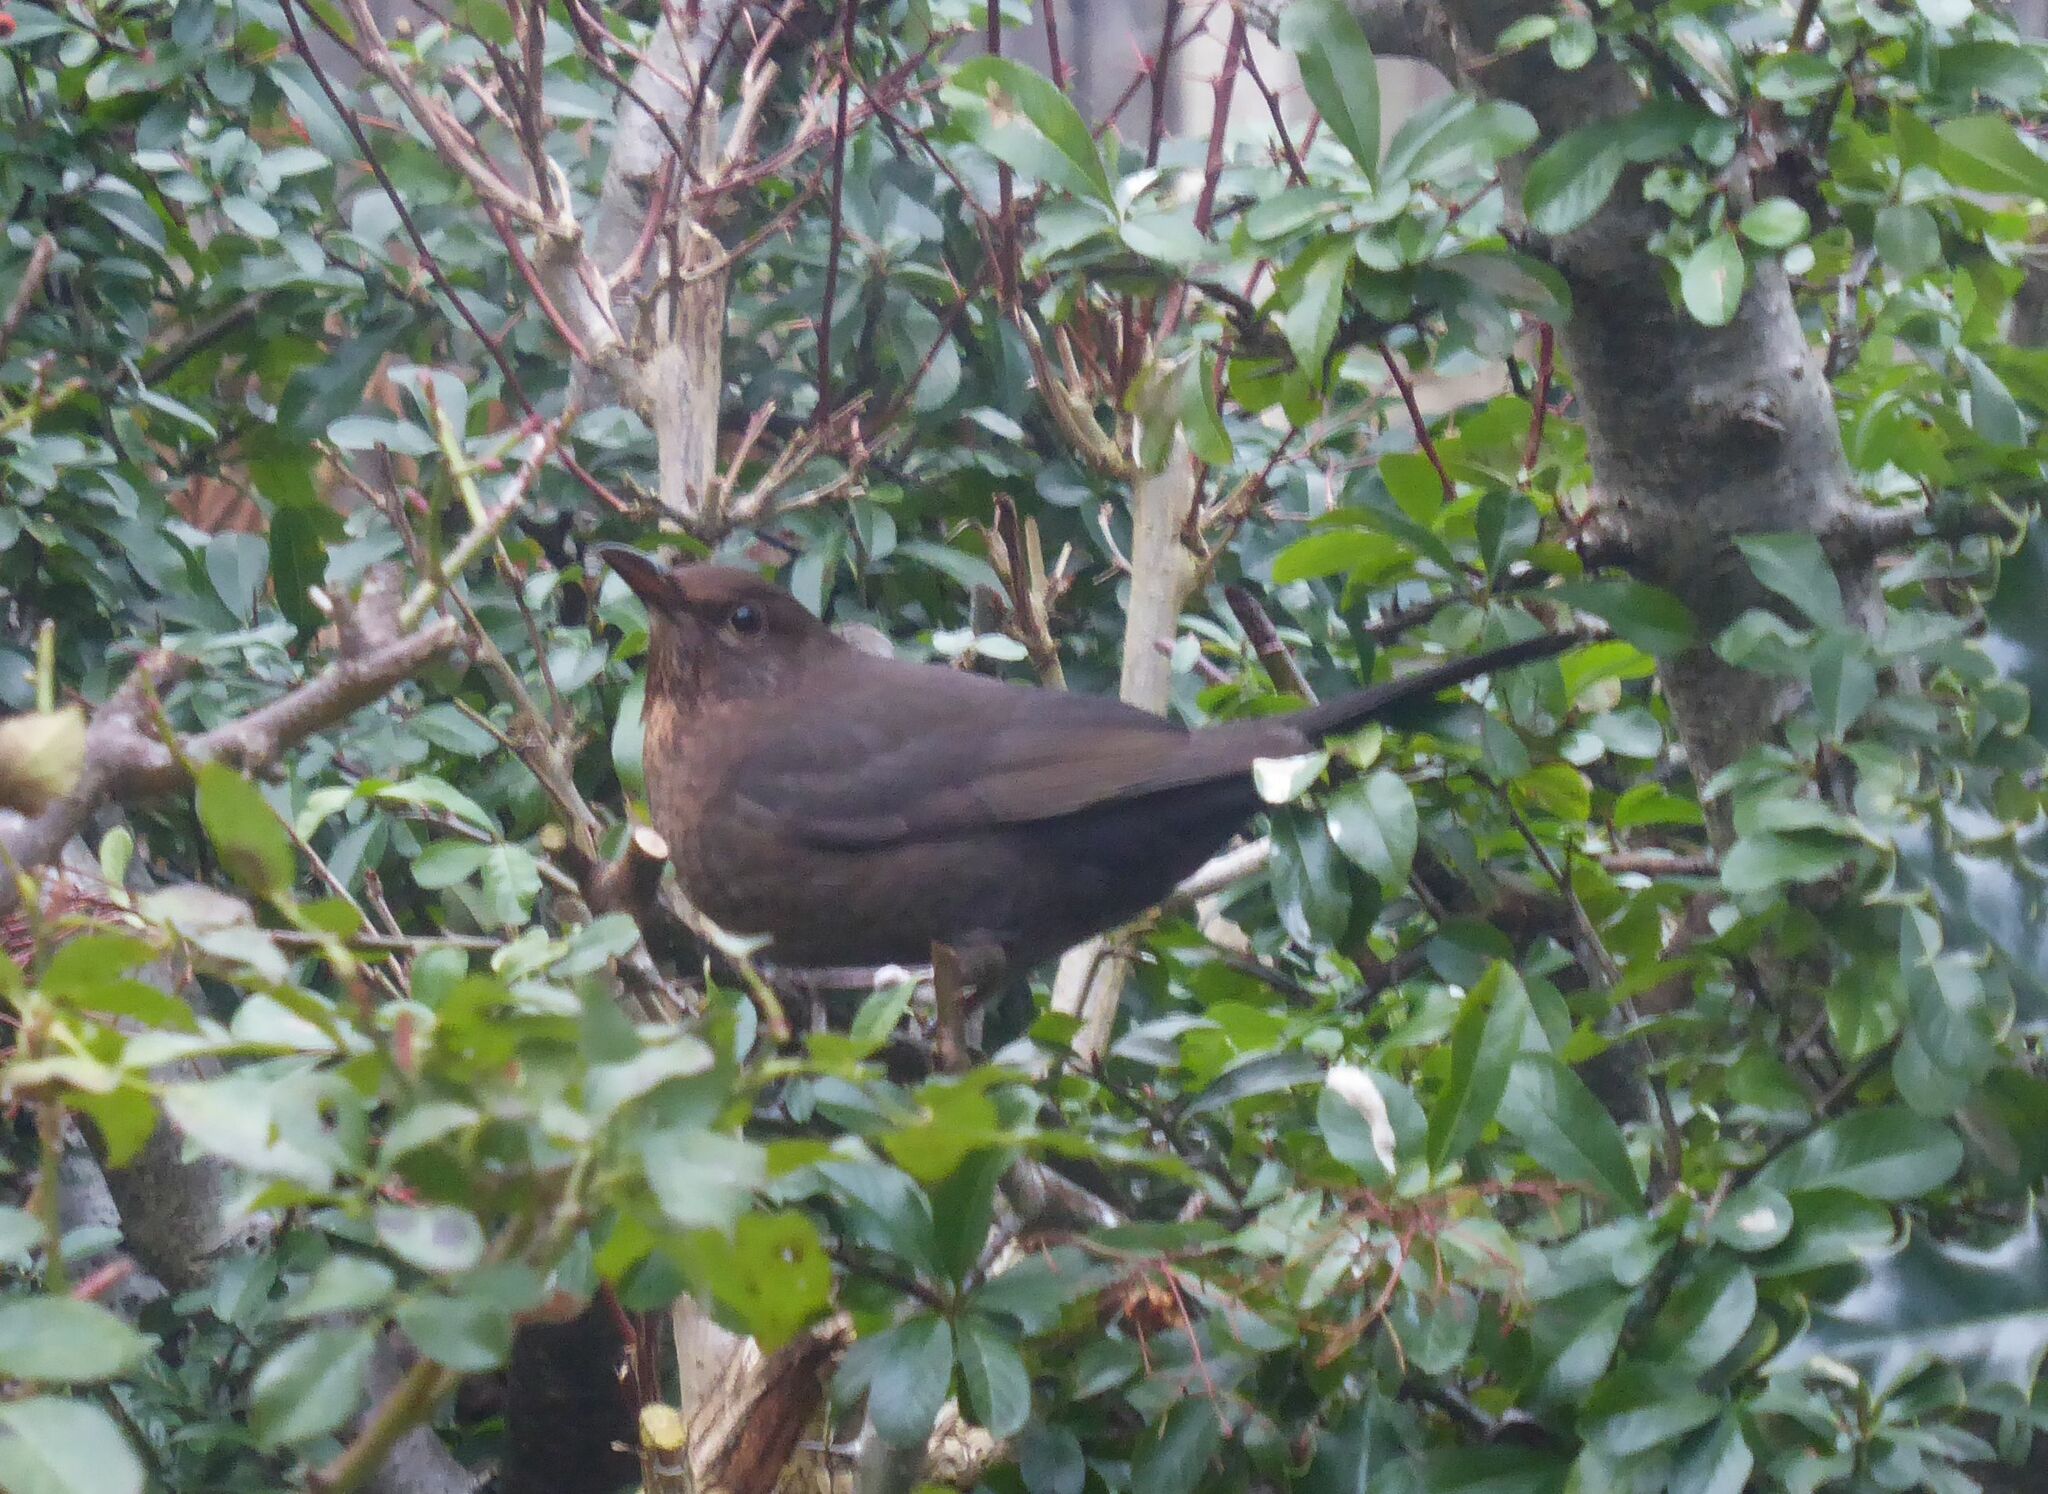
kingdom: Animalia
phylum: Chordata
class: Aves
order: Passeriformes
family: Turdidae
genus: Turdus
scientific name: Turdus merula
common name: Common blackbird
